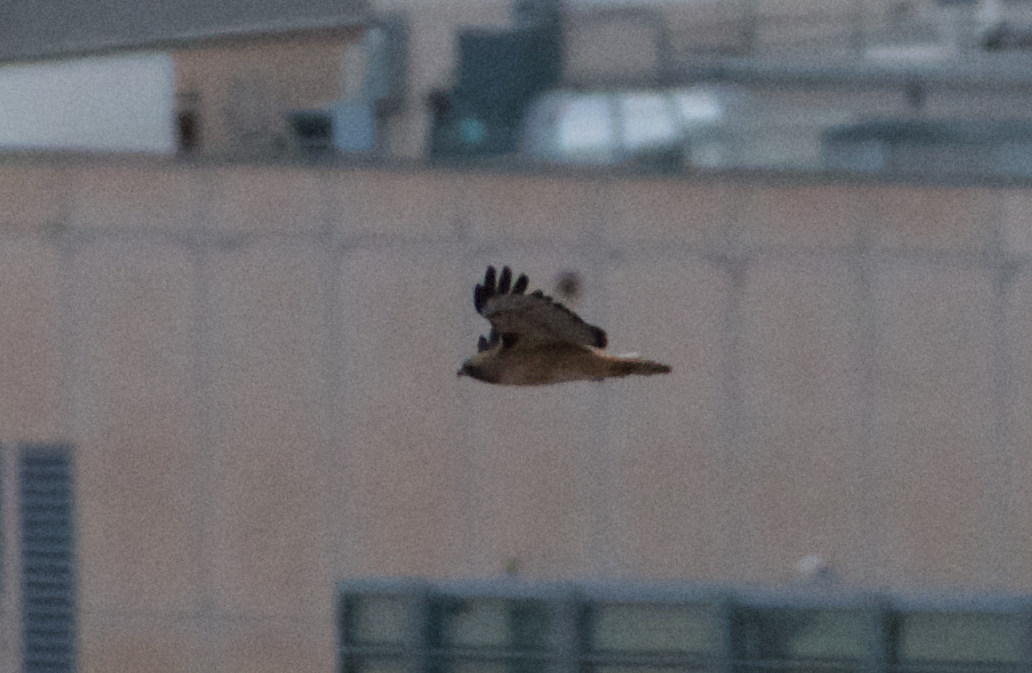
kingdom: Animalia
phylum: Chordata
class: Aves
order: Accipitriformes
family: Accipitridae
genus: Buteo
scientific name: Buteo jamaicensis
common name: Red-tailed hawk
